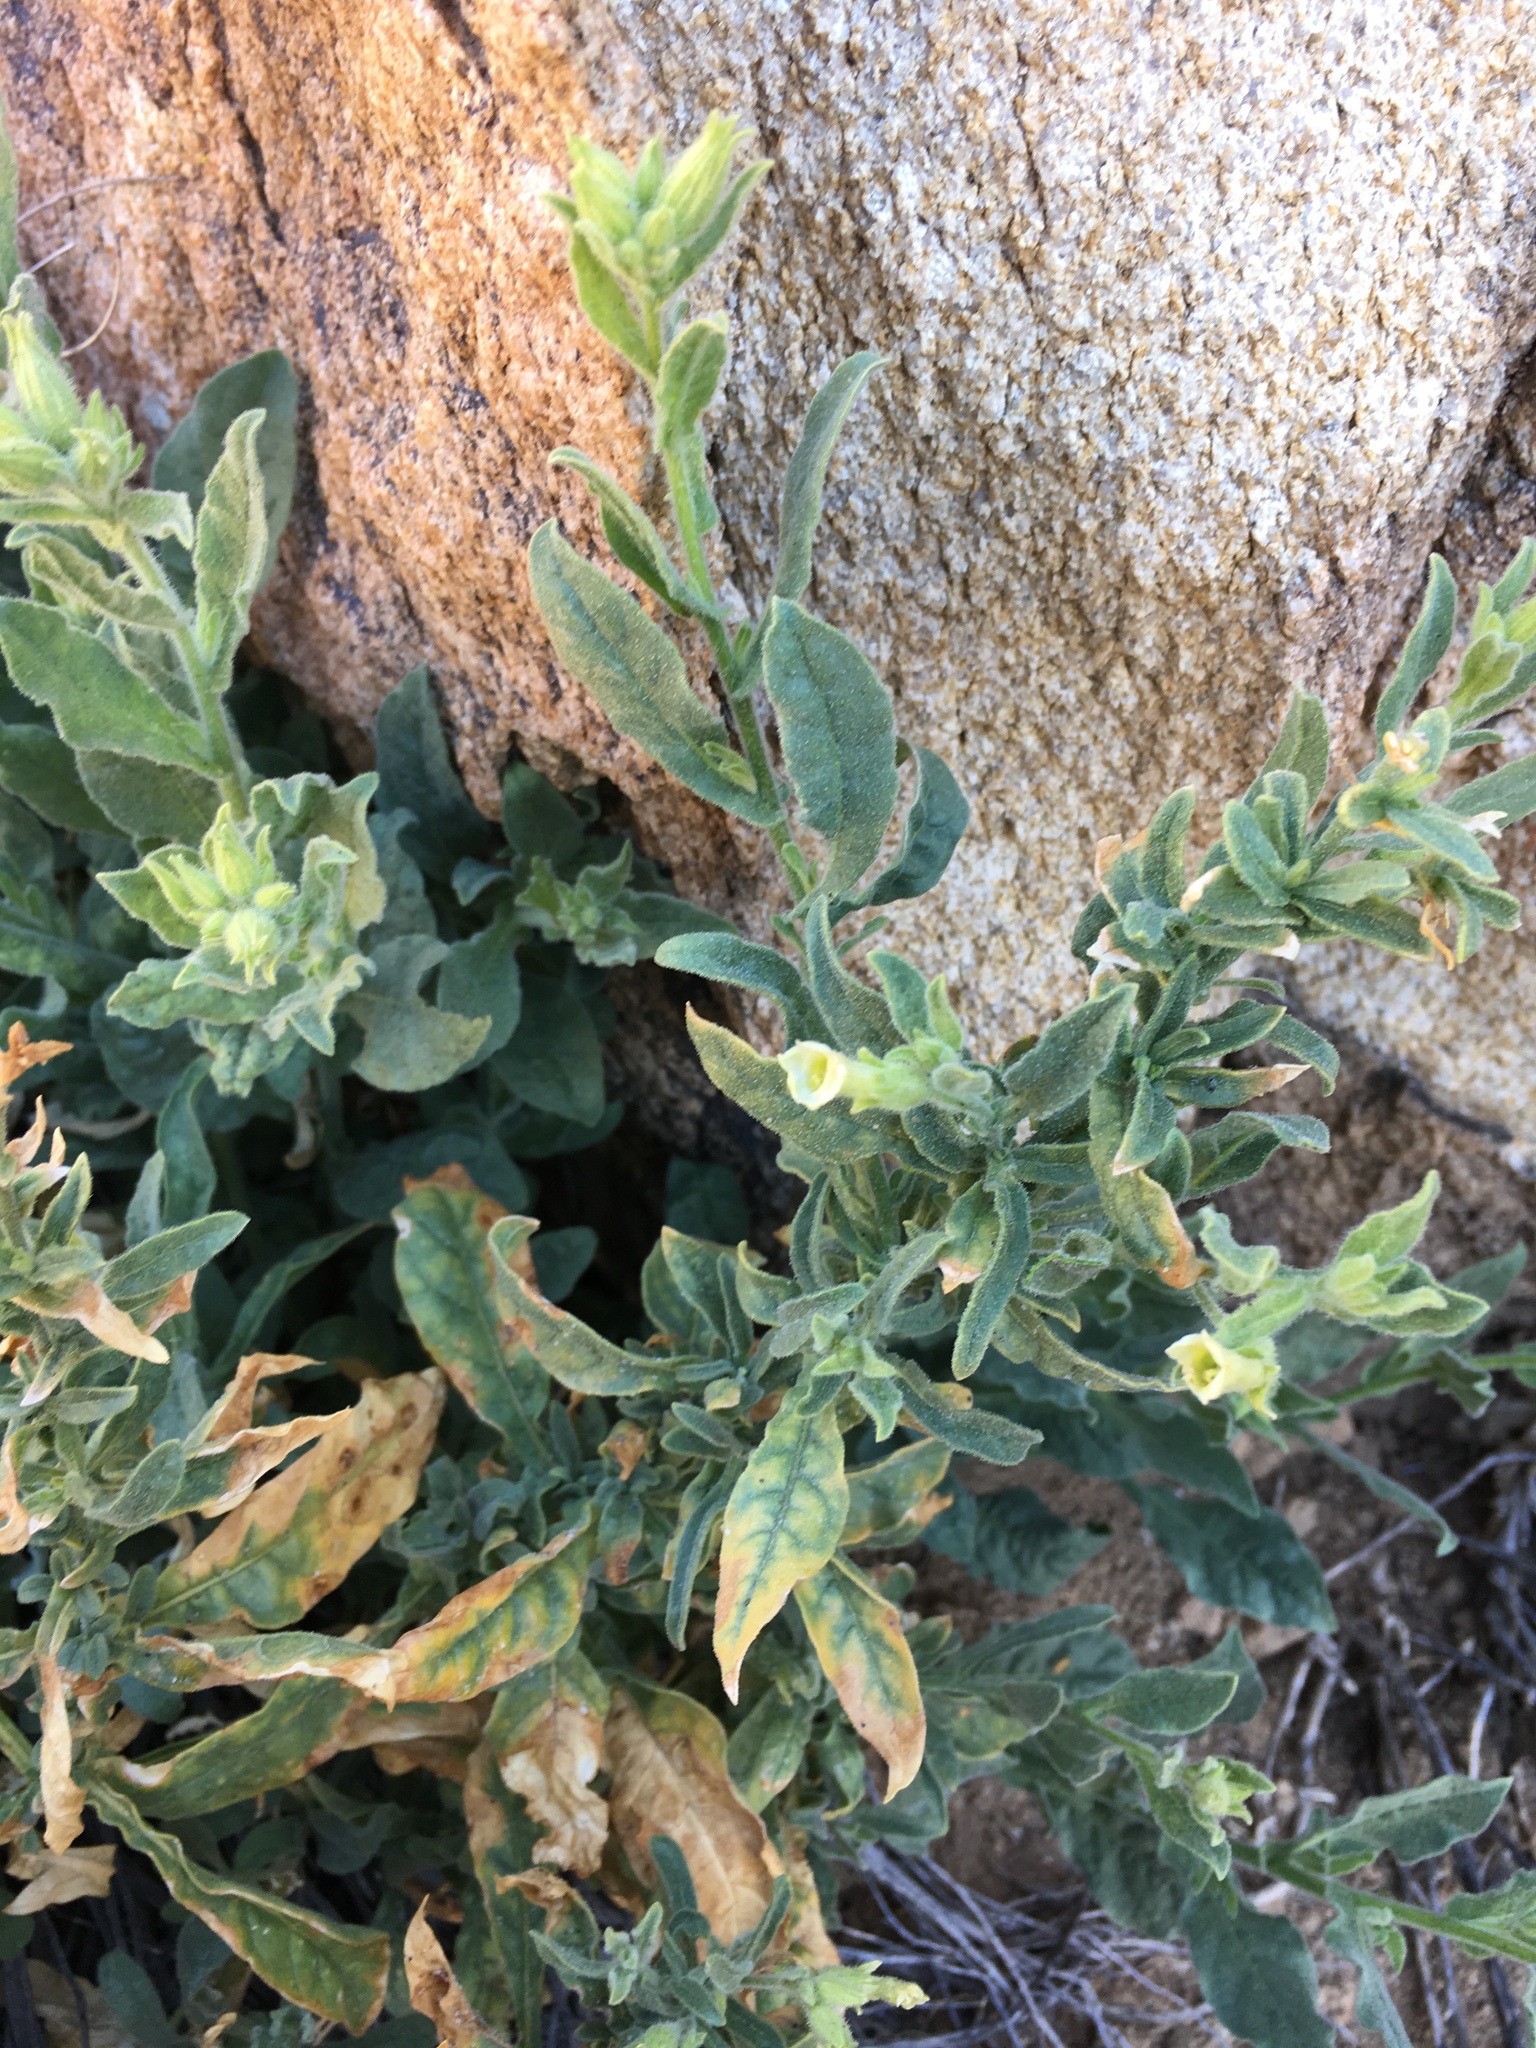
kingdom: Plantae
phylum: Tracheophyta
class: Magnoliopsida
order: Solanales
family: Solanaceae
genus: Nicotiana
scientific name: Nicotiana obtusifolia
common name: Desert tobacco
